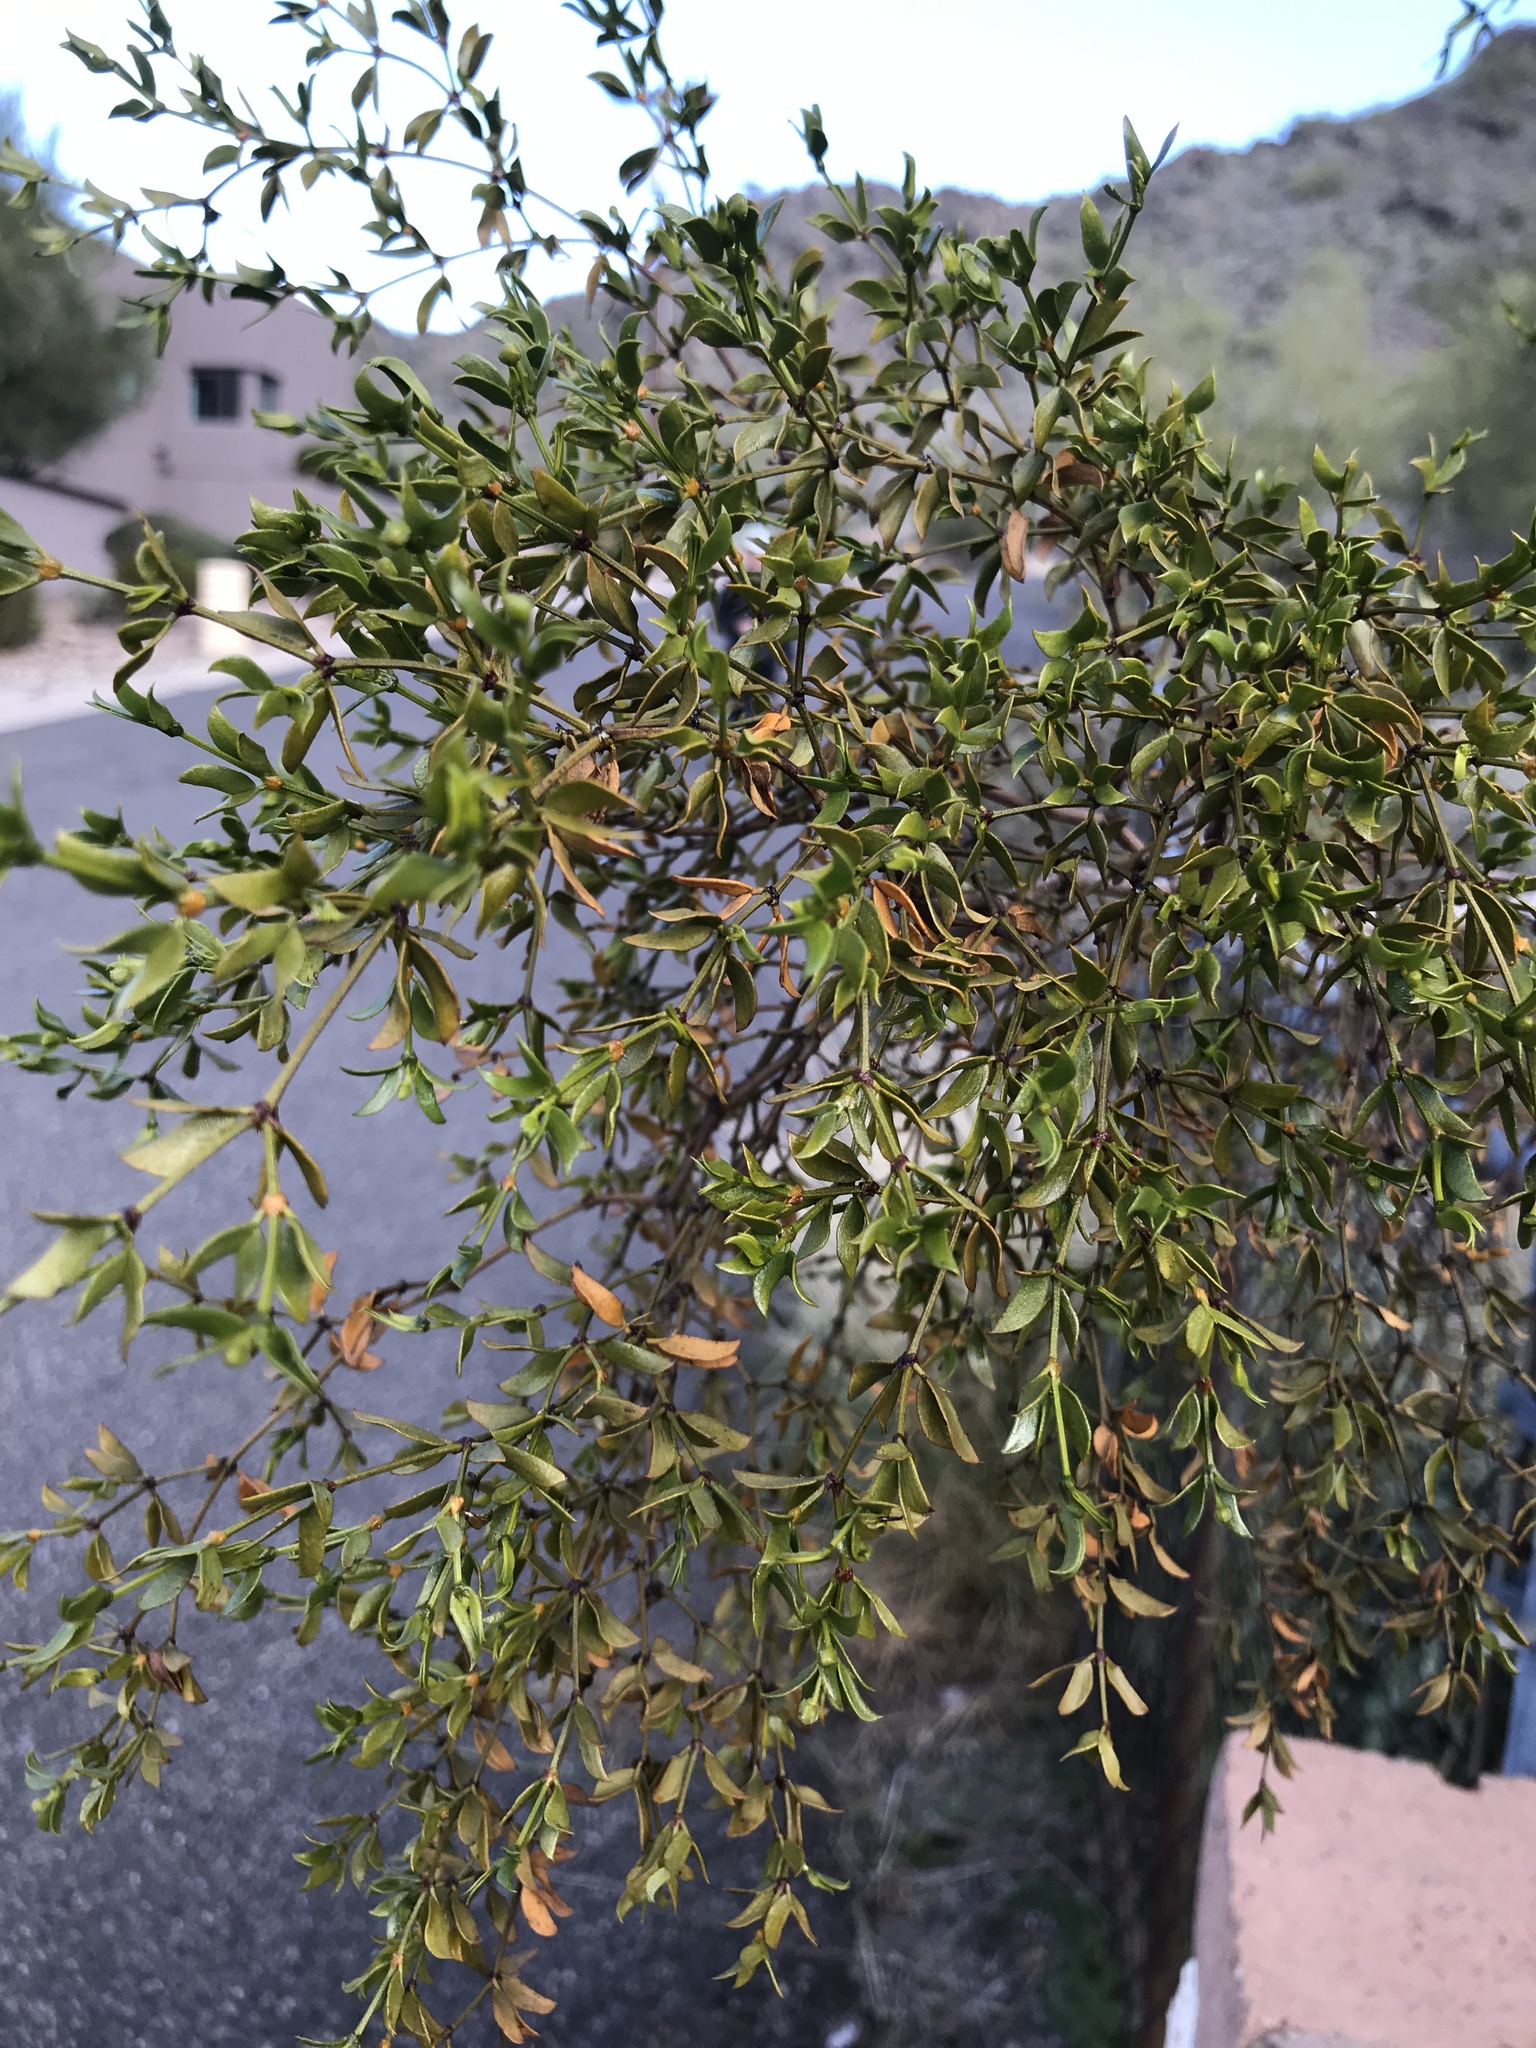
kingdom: Plantae
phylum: Tracheophyta
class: Magnoliopsida
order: Zygophyllales
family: Zygophyllaceae
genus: Larrea
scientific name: Larrea tridentata
